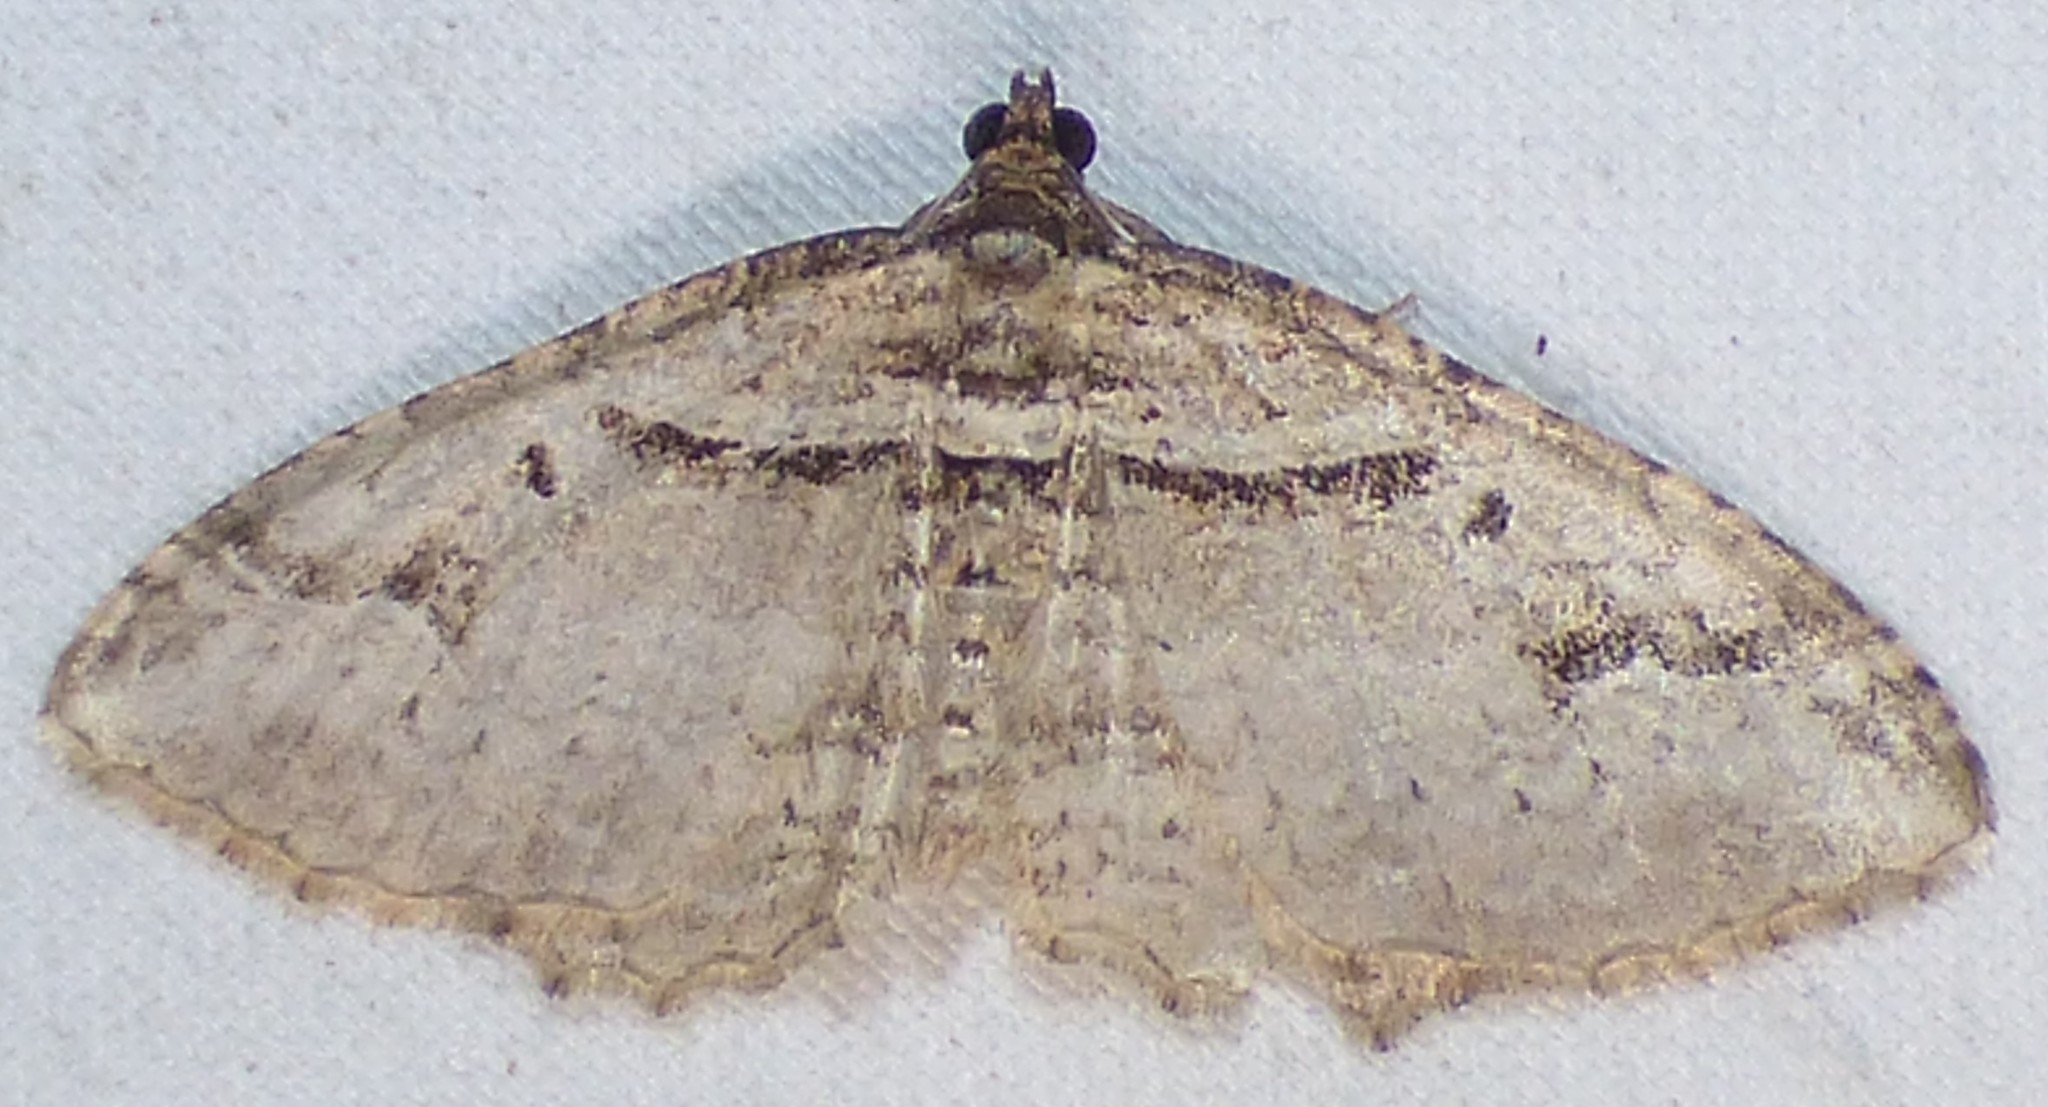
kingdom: Animalia
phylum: Arthropoda
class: Insecta
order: Lepidoptera
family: Geometridae
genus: Costaconvexa
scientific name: Costaconvexa centrostrigaria
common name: Bent-line carpet
